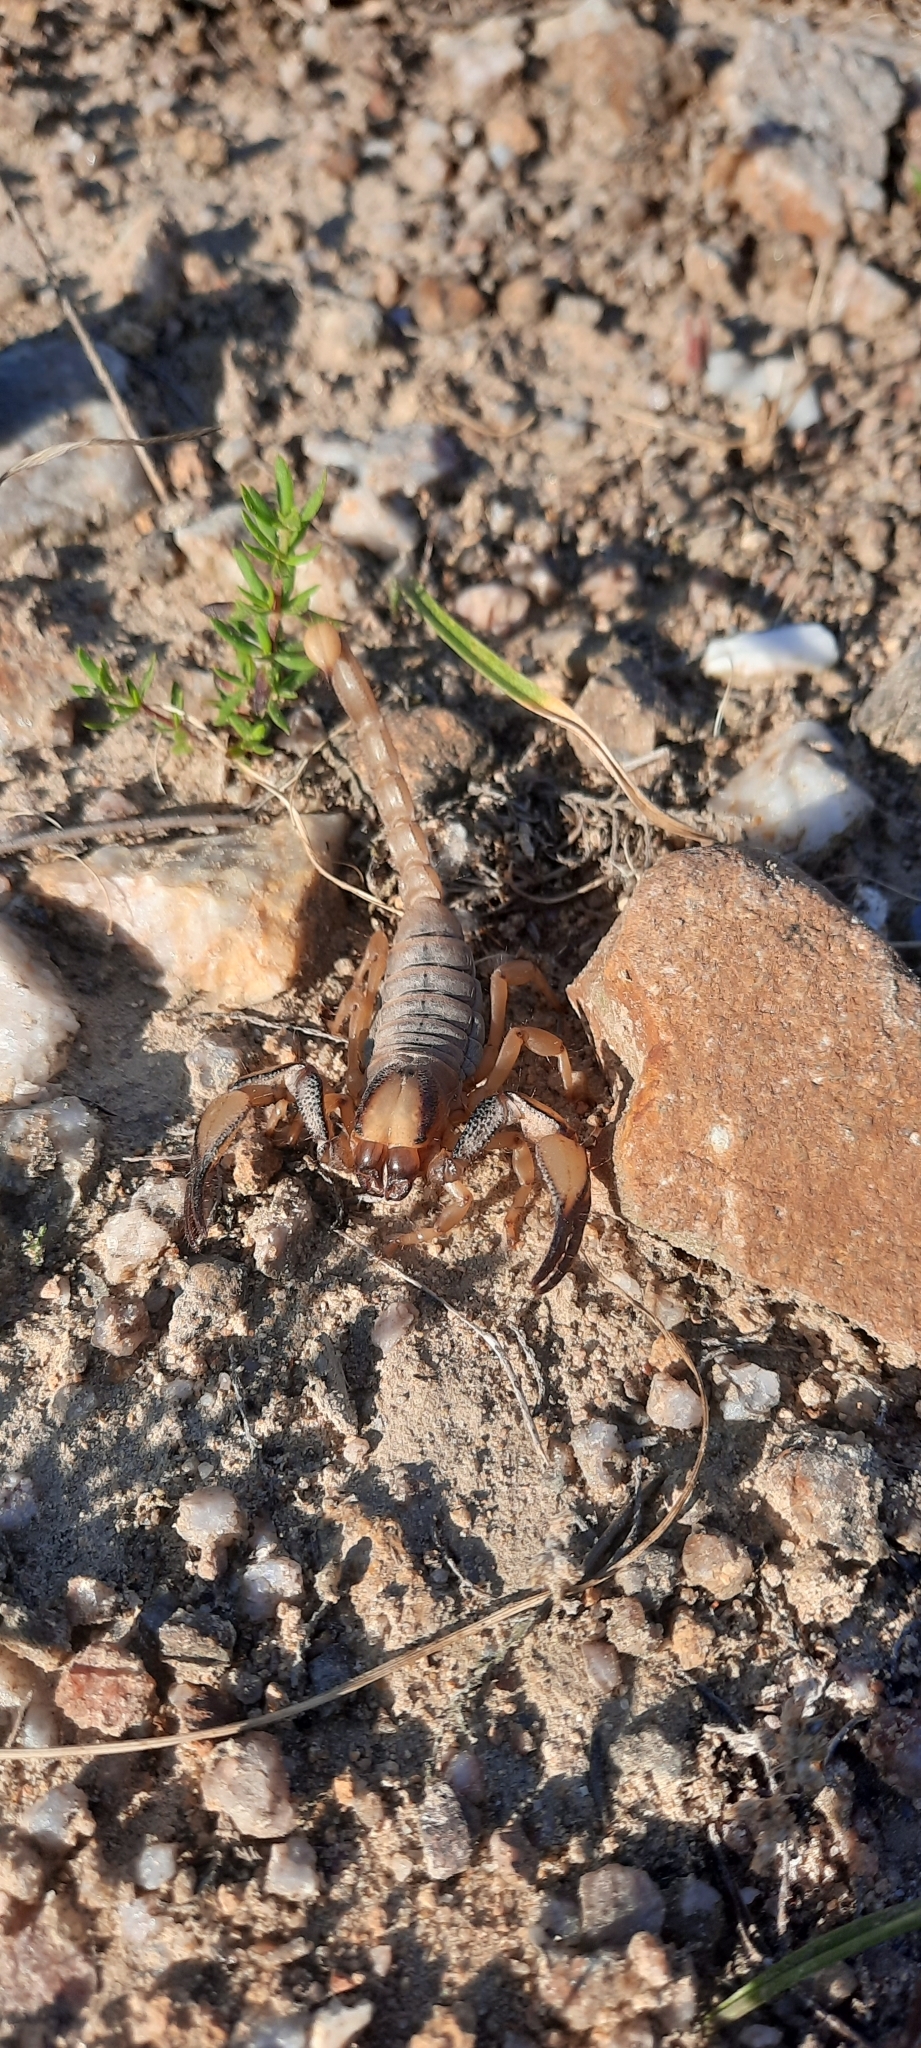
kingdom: Animalia
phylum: Arthropoda
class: Arachnida
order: Scorpiones
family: Scorpionidae
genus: Opistophthalmus
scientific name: Opistophthalmus capensis
